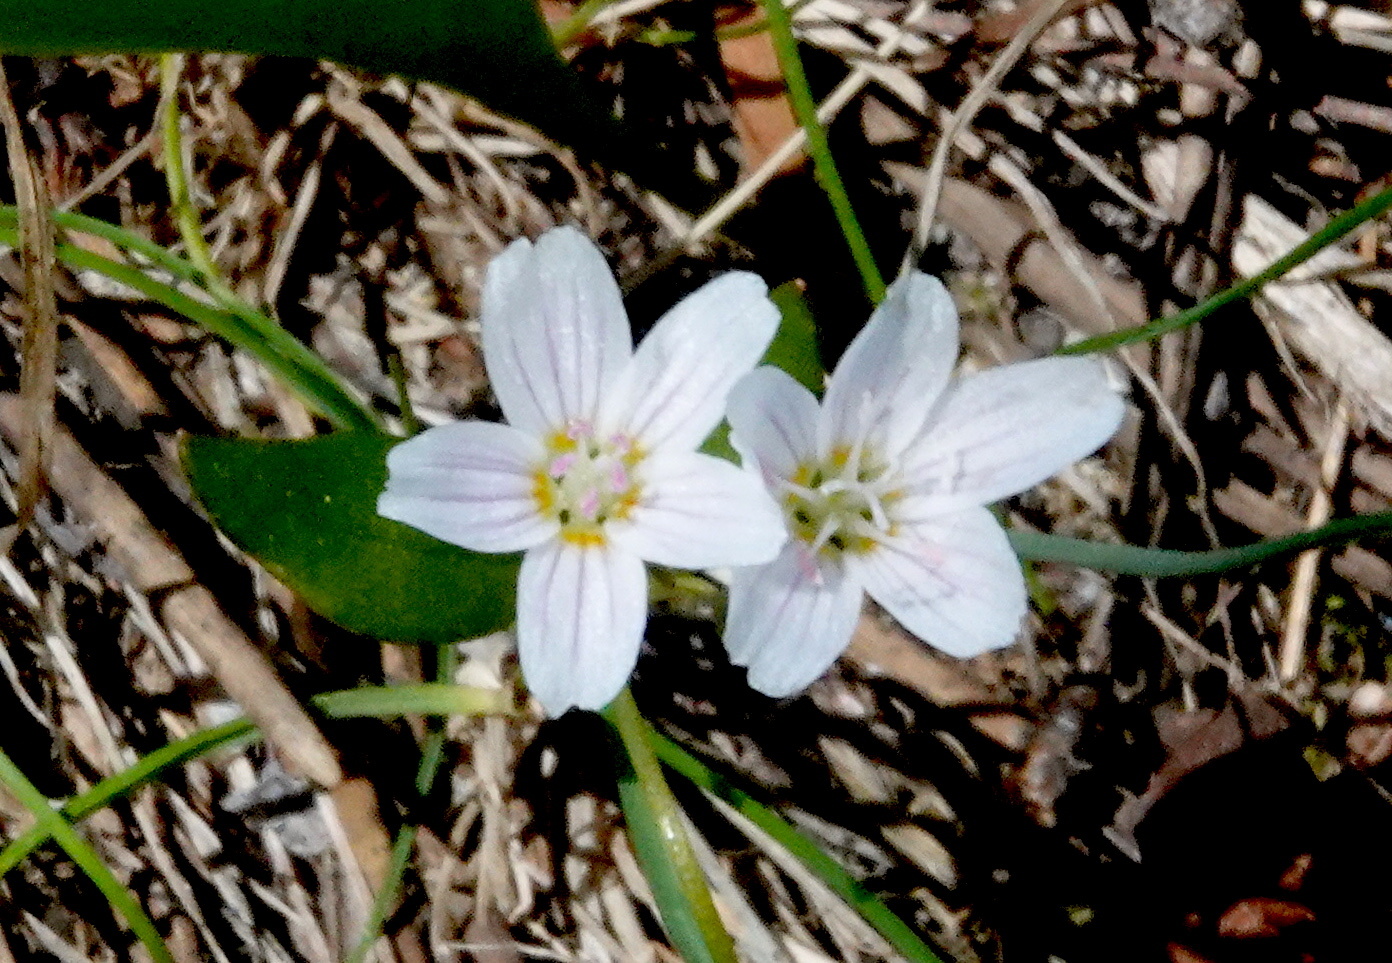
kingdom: Plantae
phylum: Tracheophyta
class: Magnoliopsida
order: Caryophyllales
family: Montiaceae
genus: Claytonia
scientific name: Claytonia lanceolata
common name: Western spring-beauty
